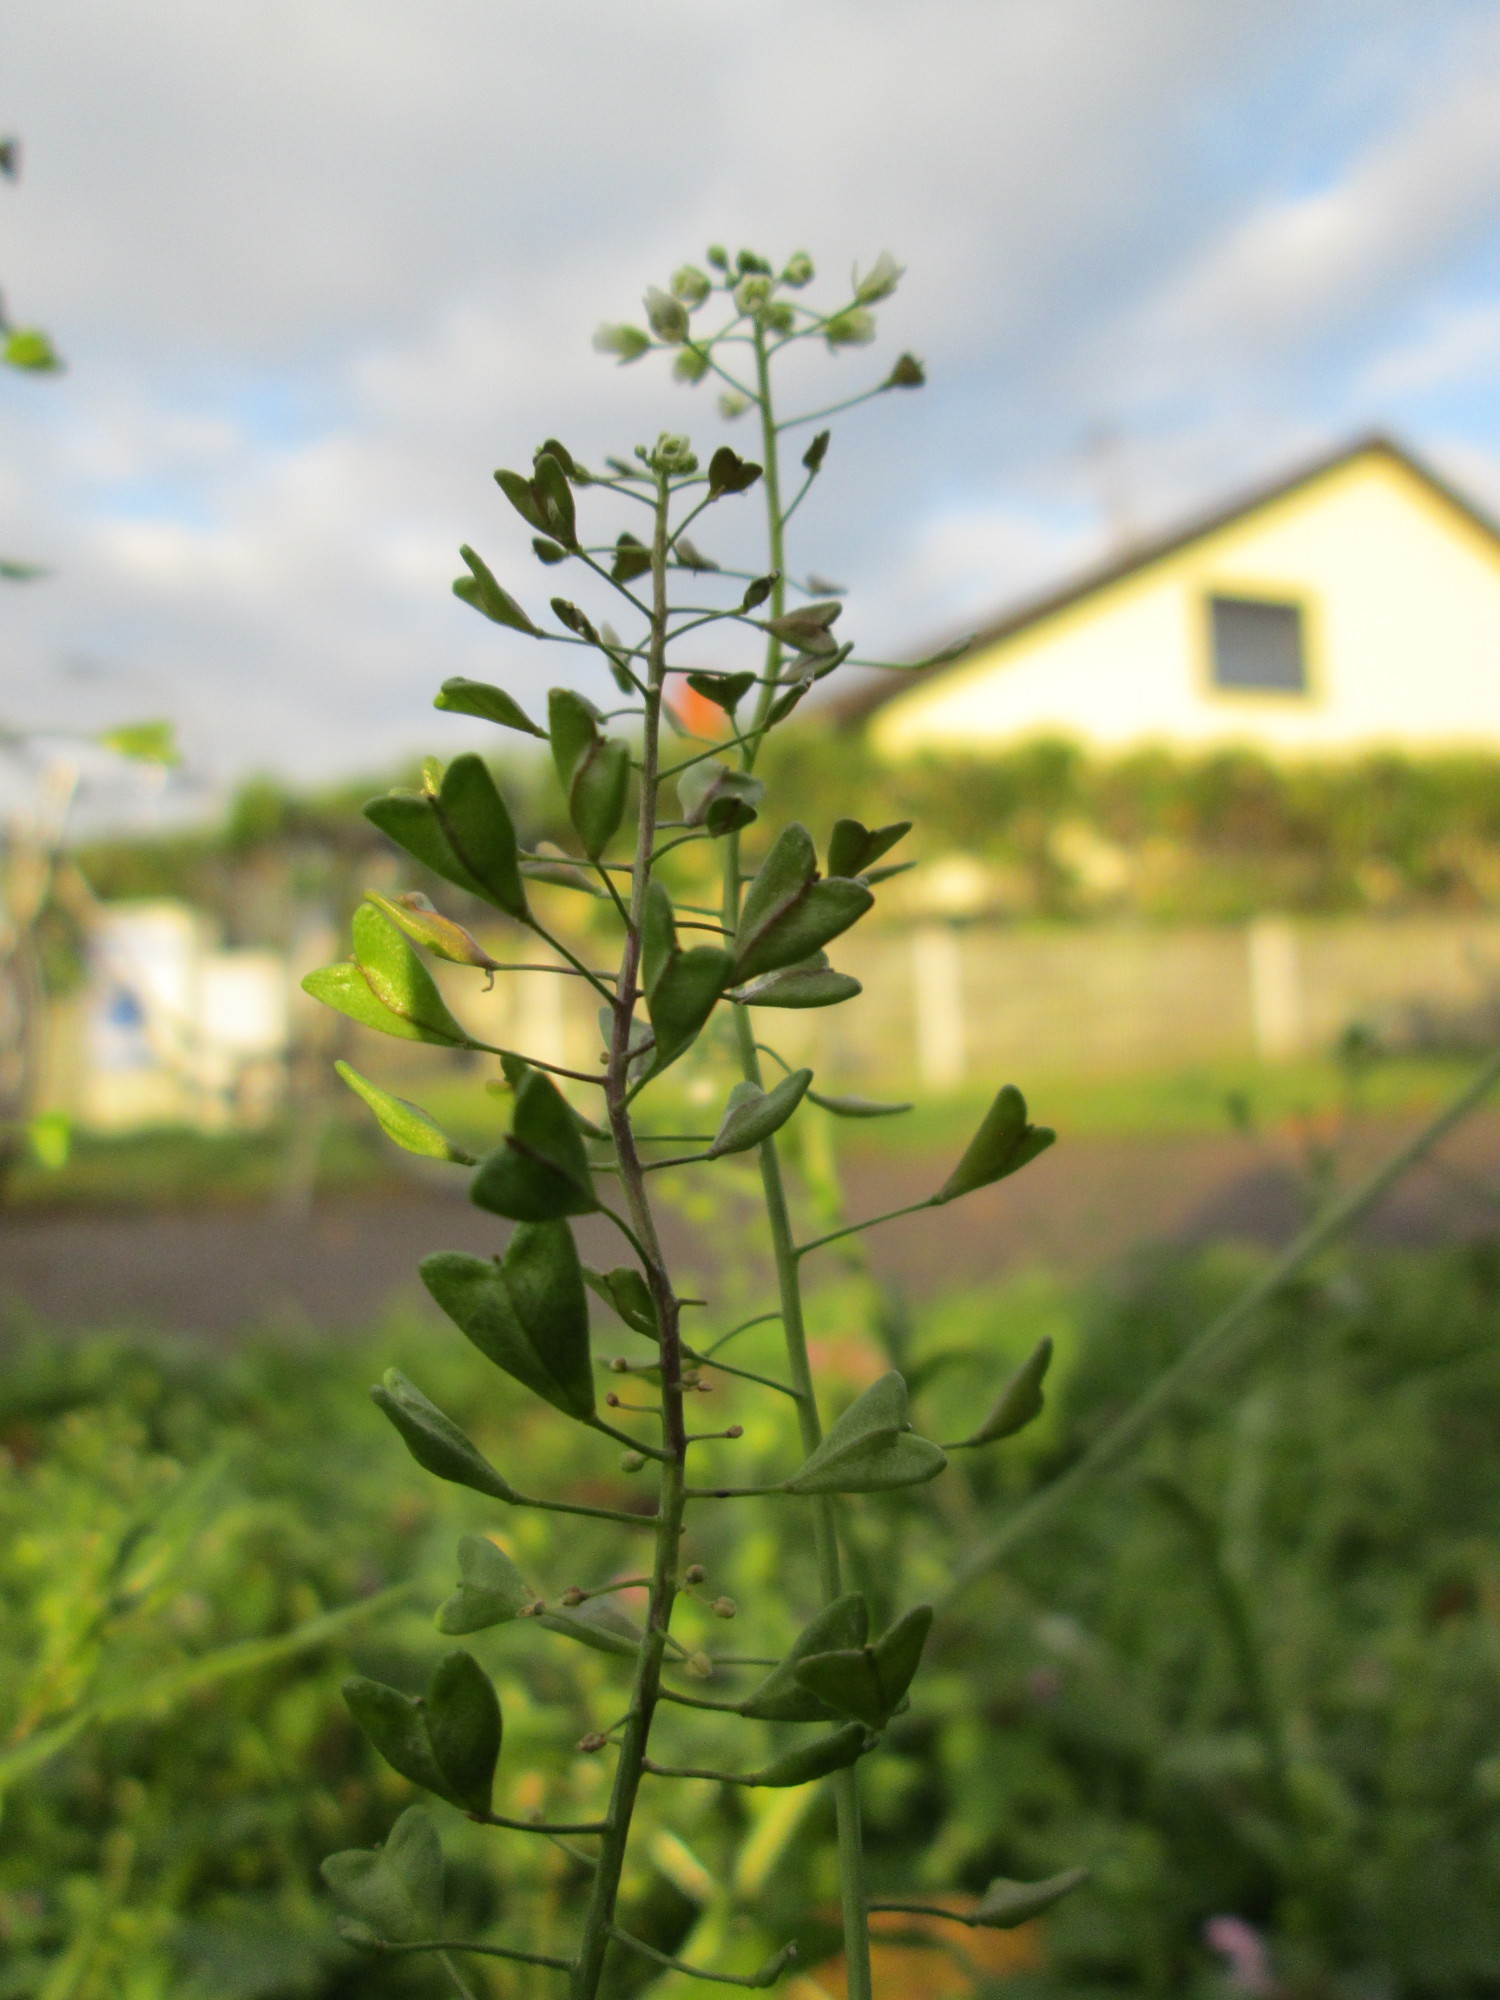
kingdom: Plantae
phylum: Tracheophyta
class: Magnoliopsida
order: Brassicales
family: Brassicaceae
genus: Capsella
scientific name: Capsella bursa-pastoris
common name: Shepherd's purse
